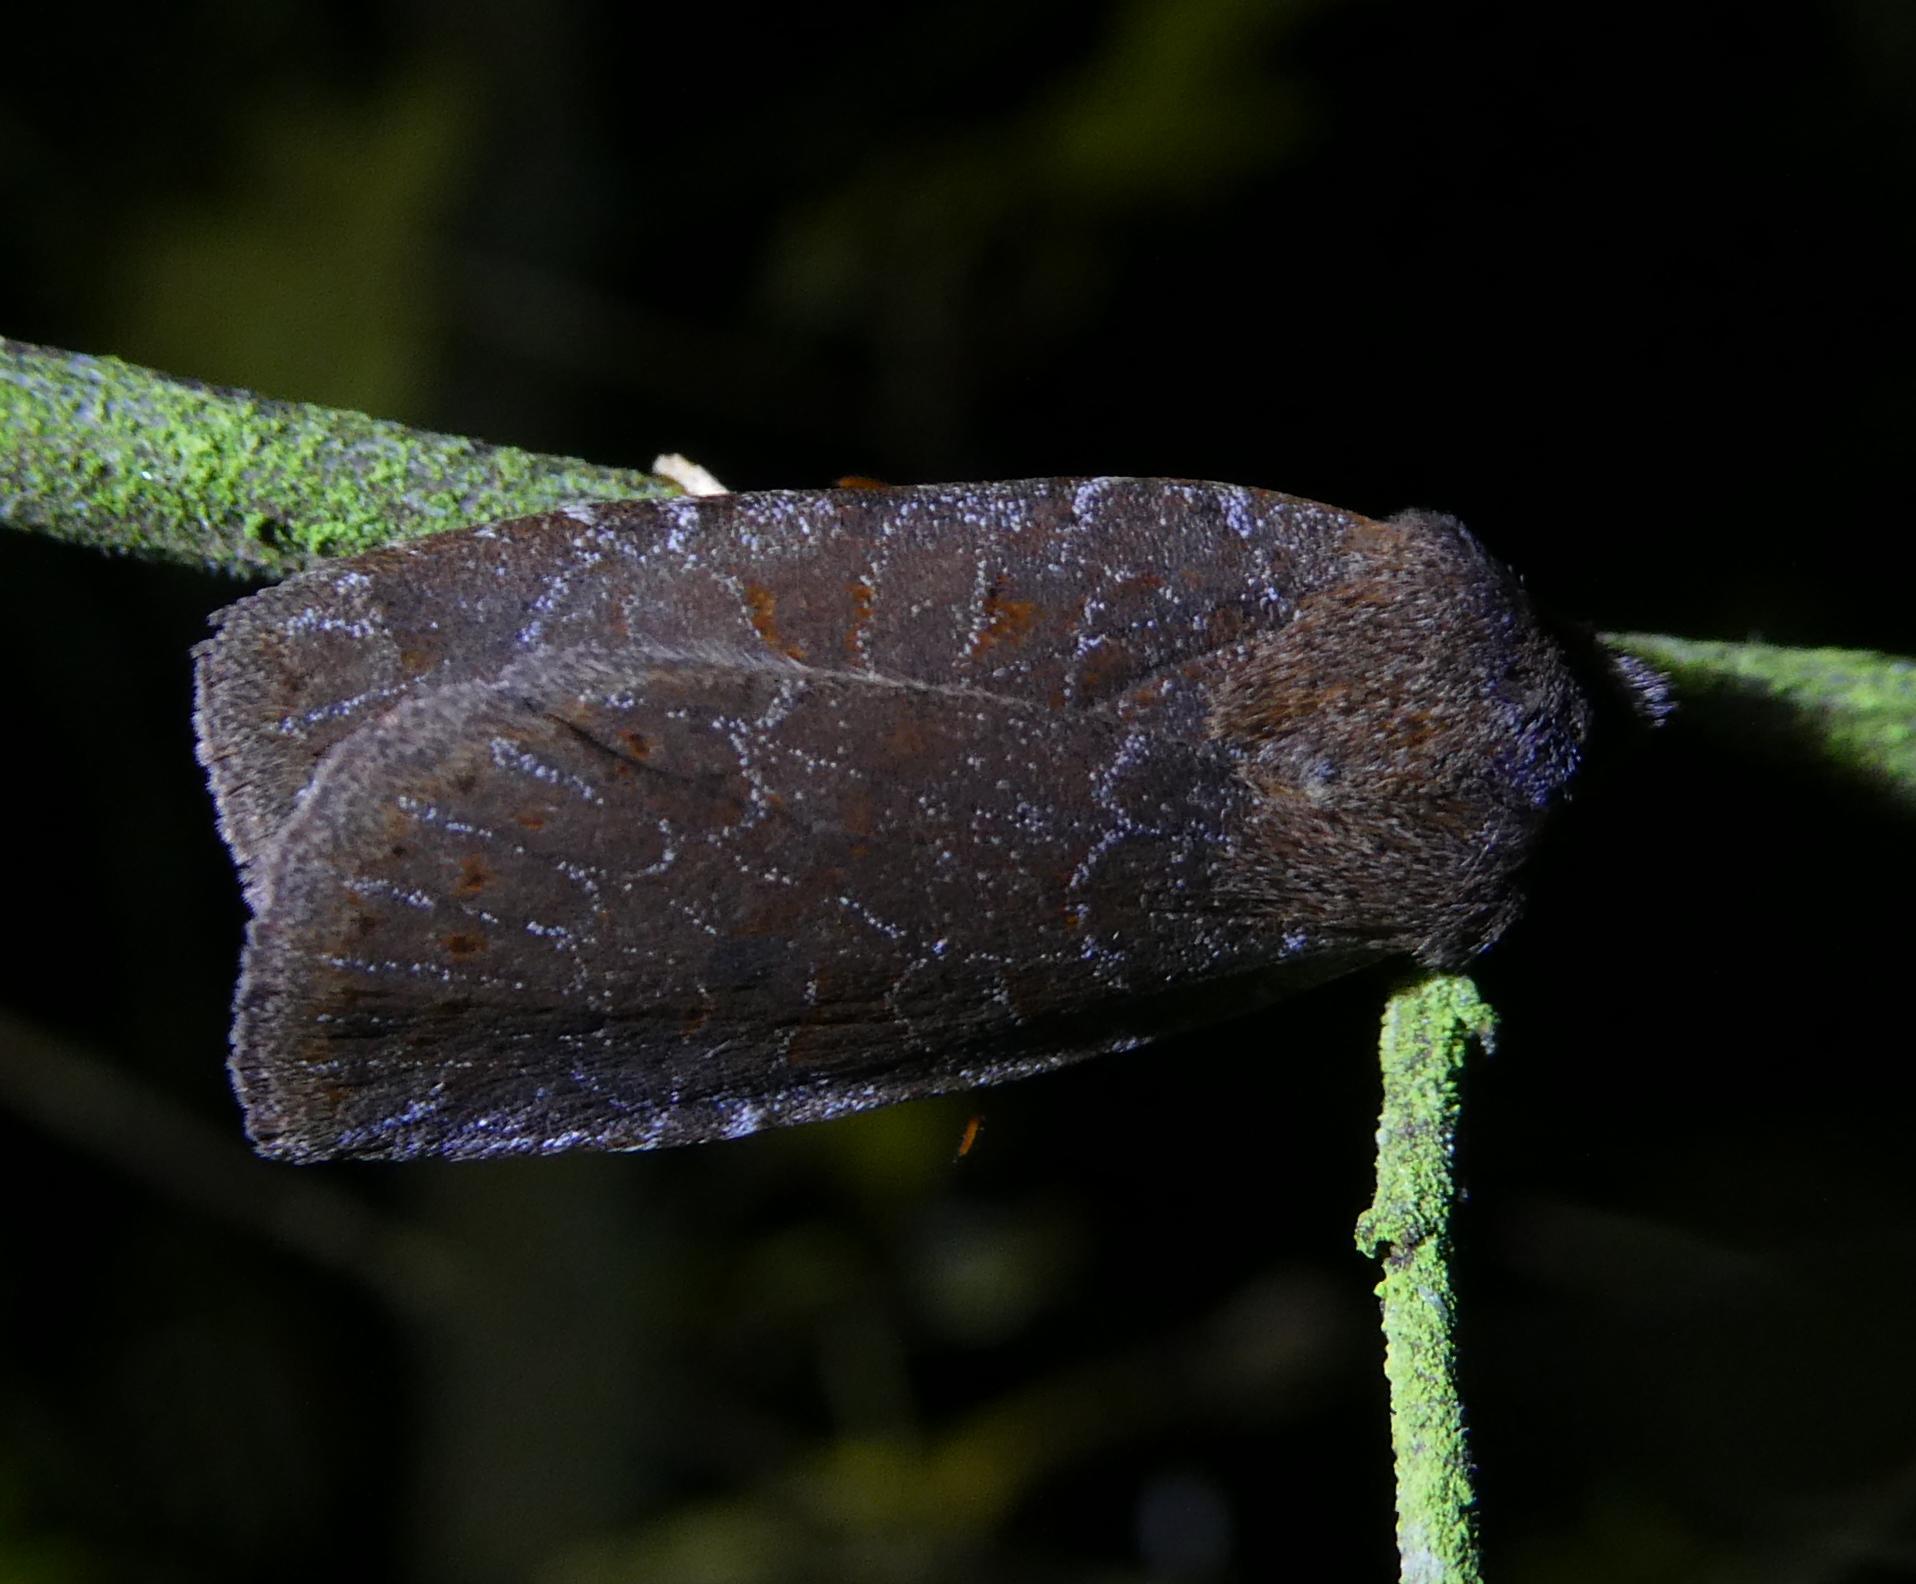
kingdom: Animalia
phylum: Arthropoda
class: Insecta
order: Lepidoptera
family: Noctuidae
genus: Conistra
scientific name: Conistra vaccinii
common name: Chestnut
